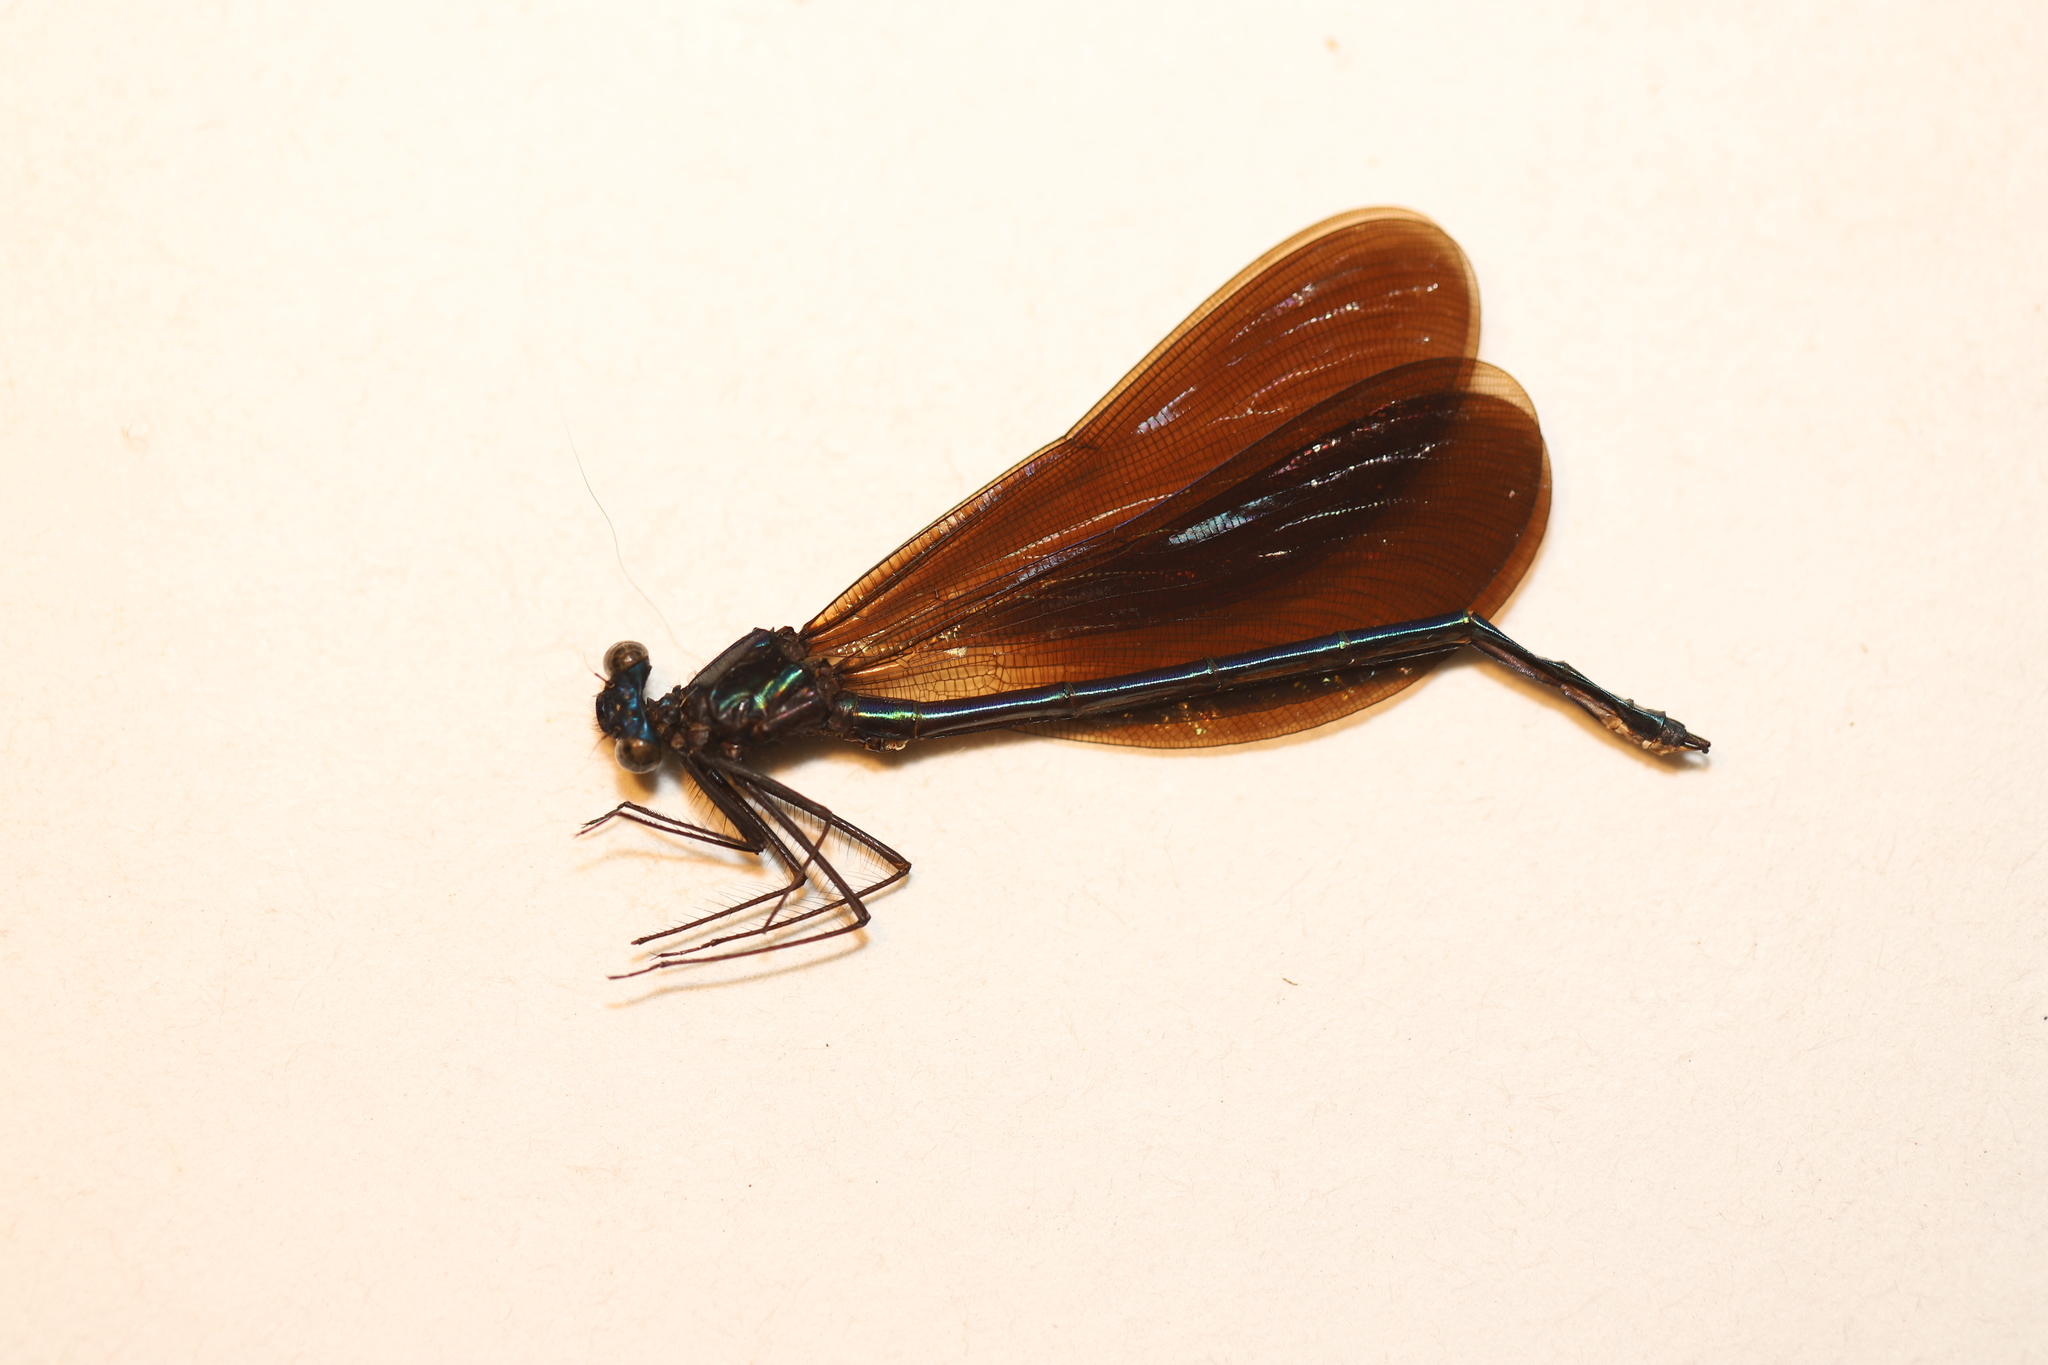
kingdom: Animalia
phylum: Arthropoda
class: Insecta
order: Odonata
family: Calopterygidae
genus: Calopteryx
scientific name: Calopteryx maculata
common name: Ebony jewelwing
